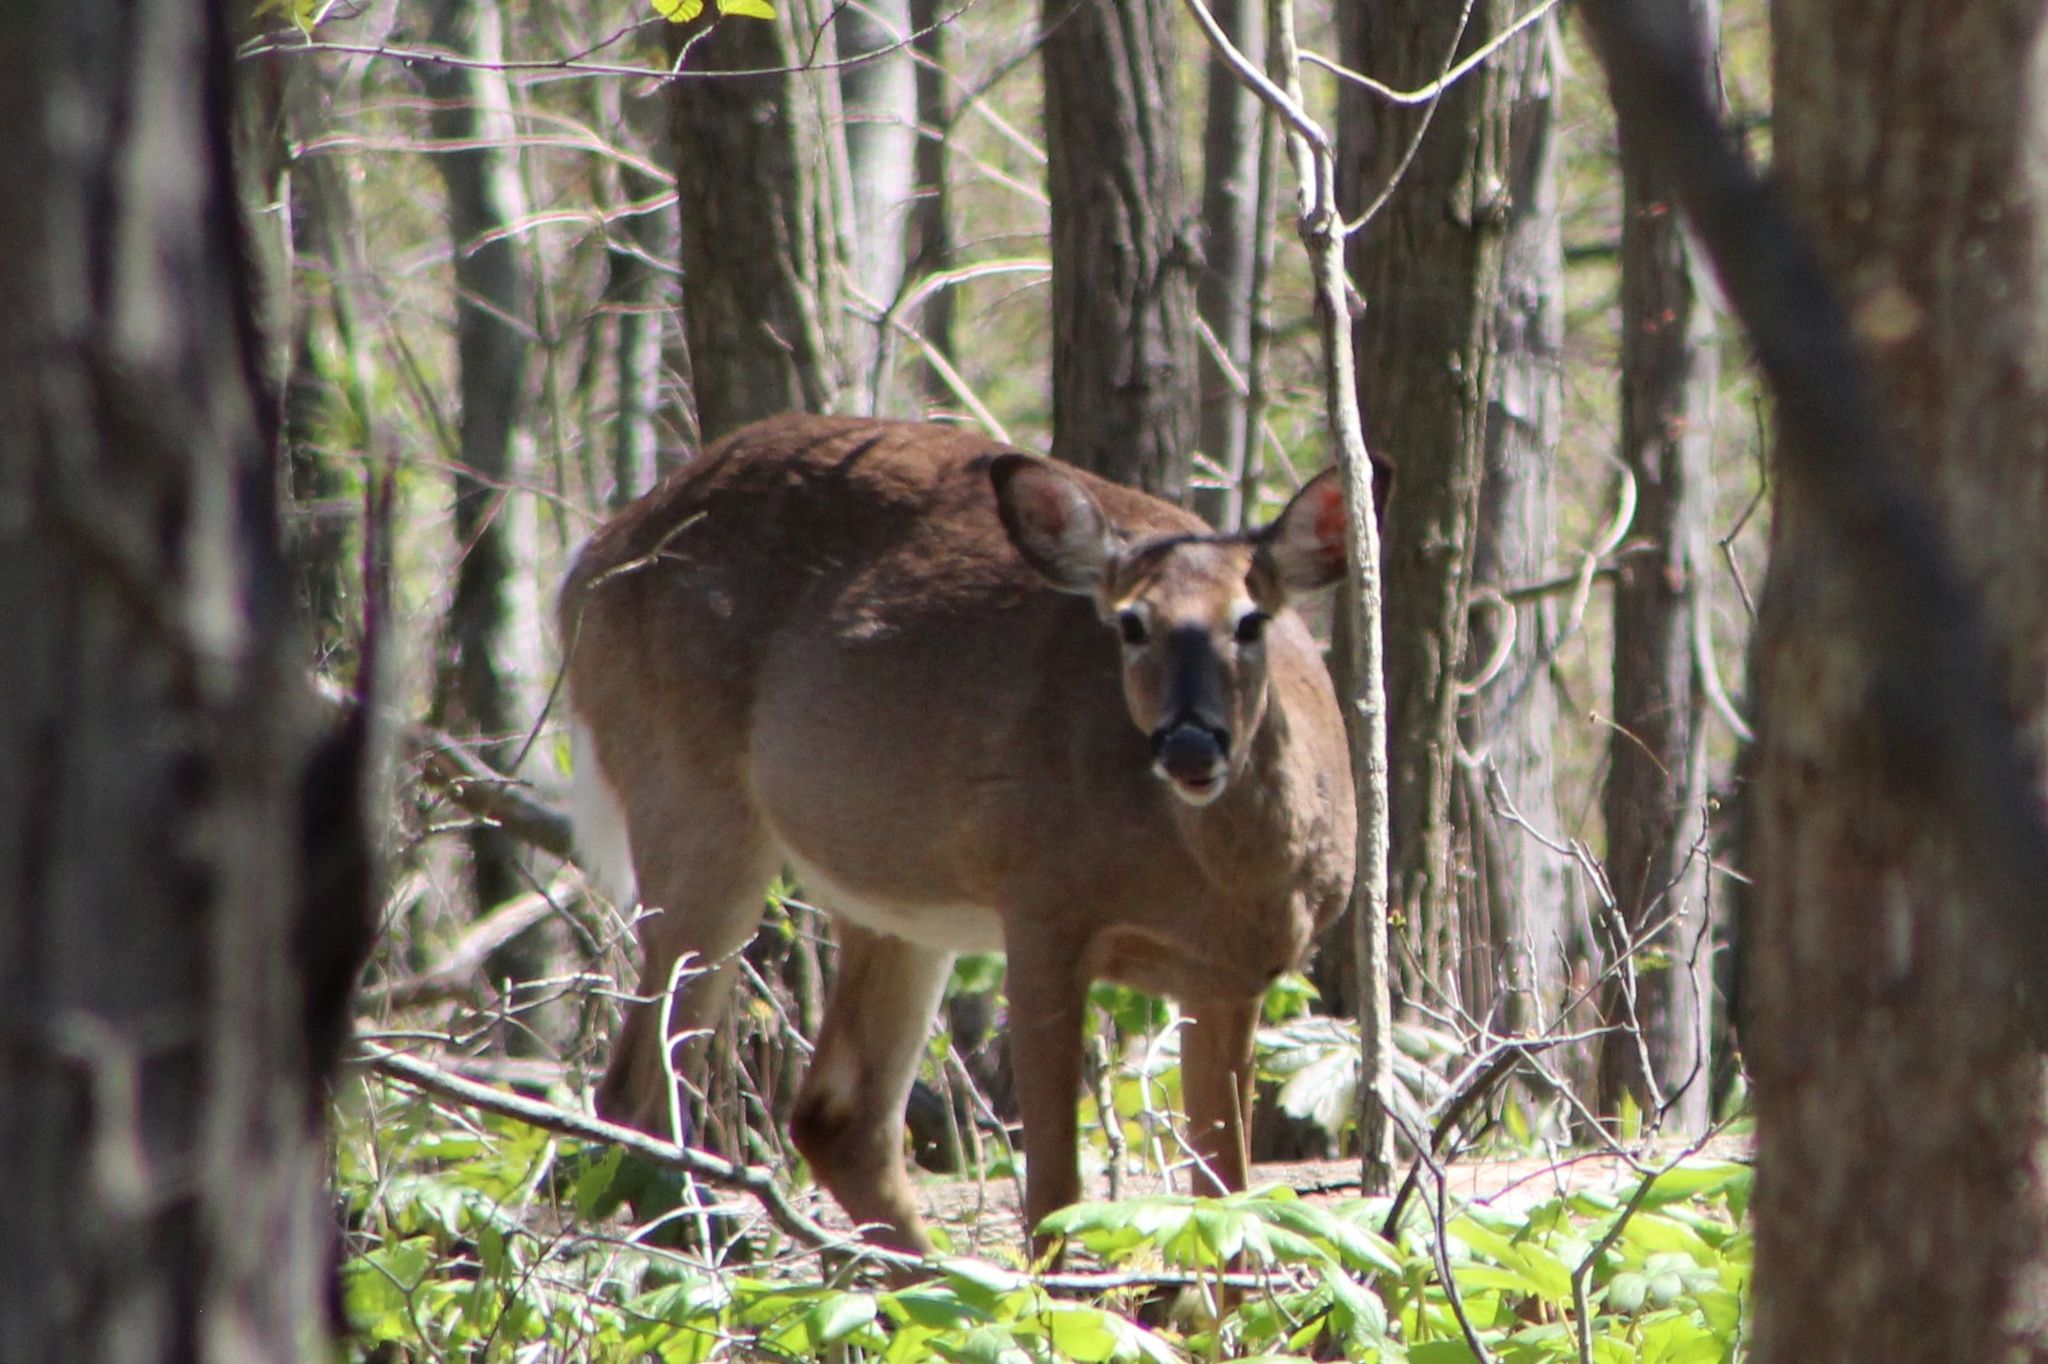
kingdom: Animalia
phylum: Chordata
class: Mammalia
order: Artiodactyla
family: Cervidae
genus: Odocoileus
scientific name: Odocoileus virginianus
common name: White-tailed deer
